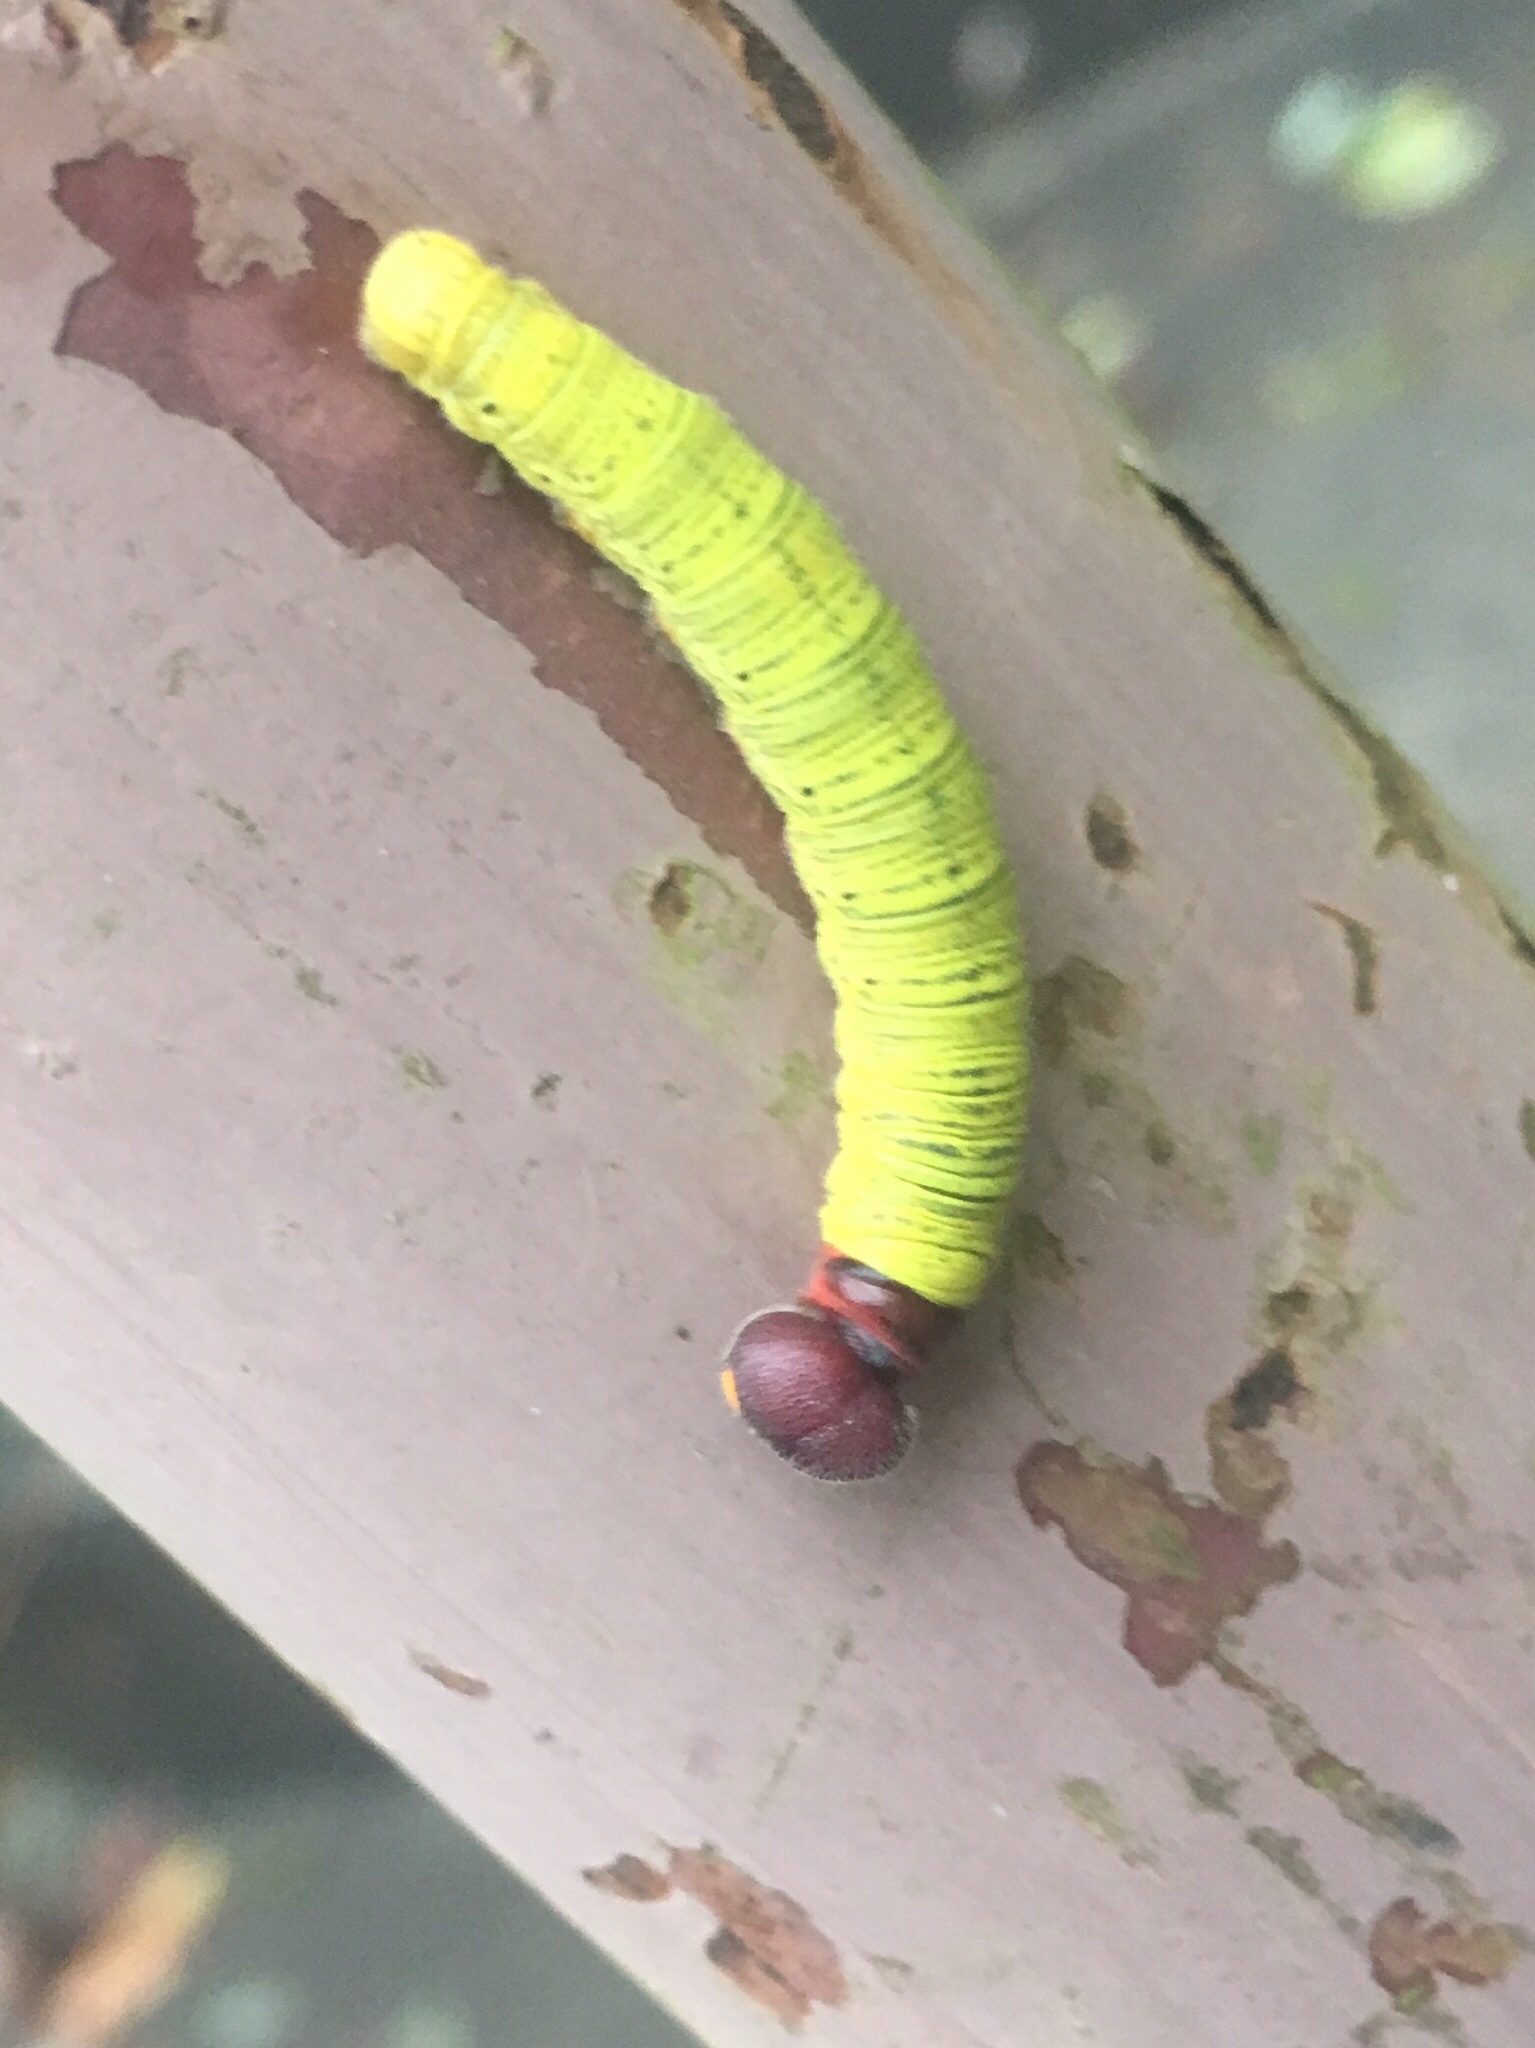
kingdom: Animalia
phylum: Arthropoda
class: Insecta
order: Lepidoptera
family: Hesperiidae
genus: Epargyreus
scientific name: Epargyreus clarus
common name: Silver-spotted skipper
